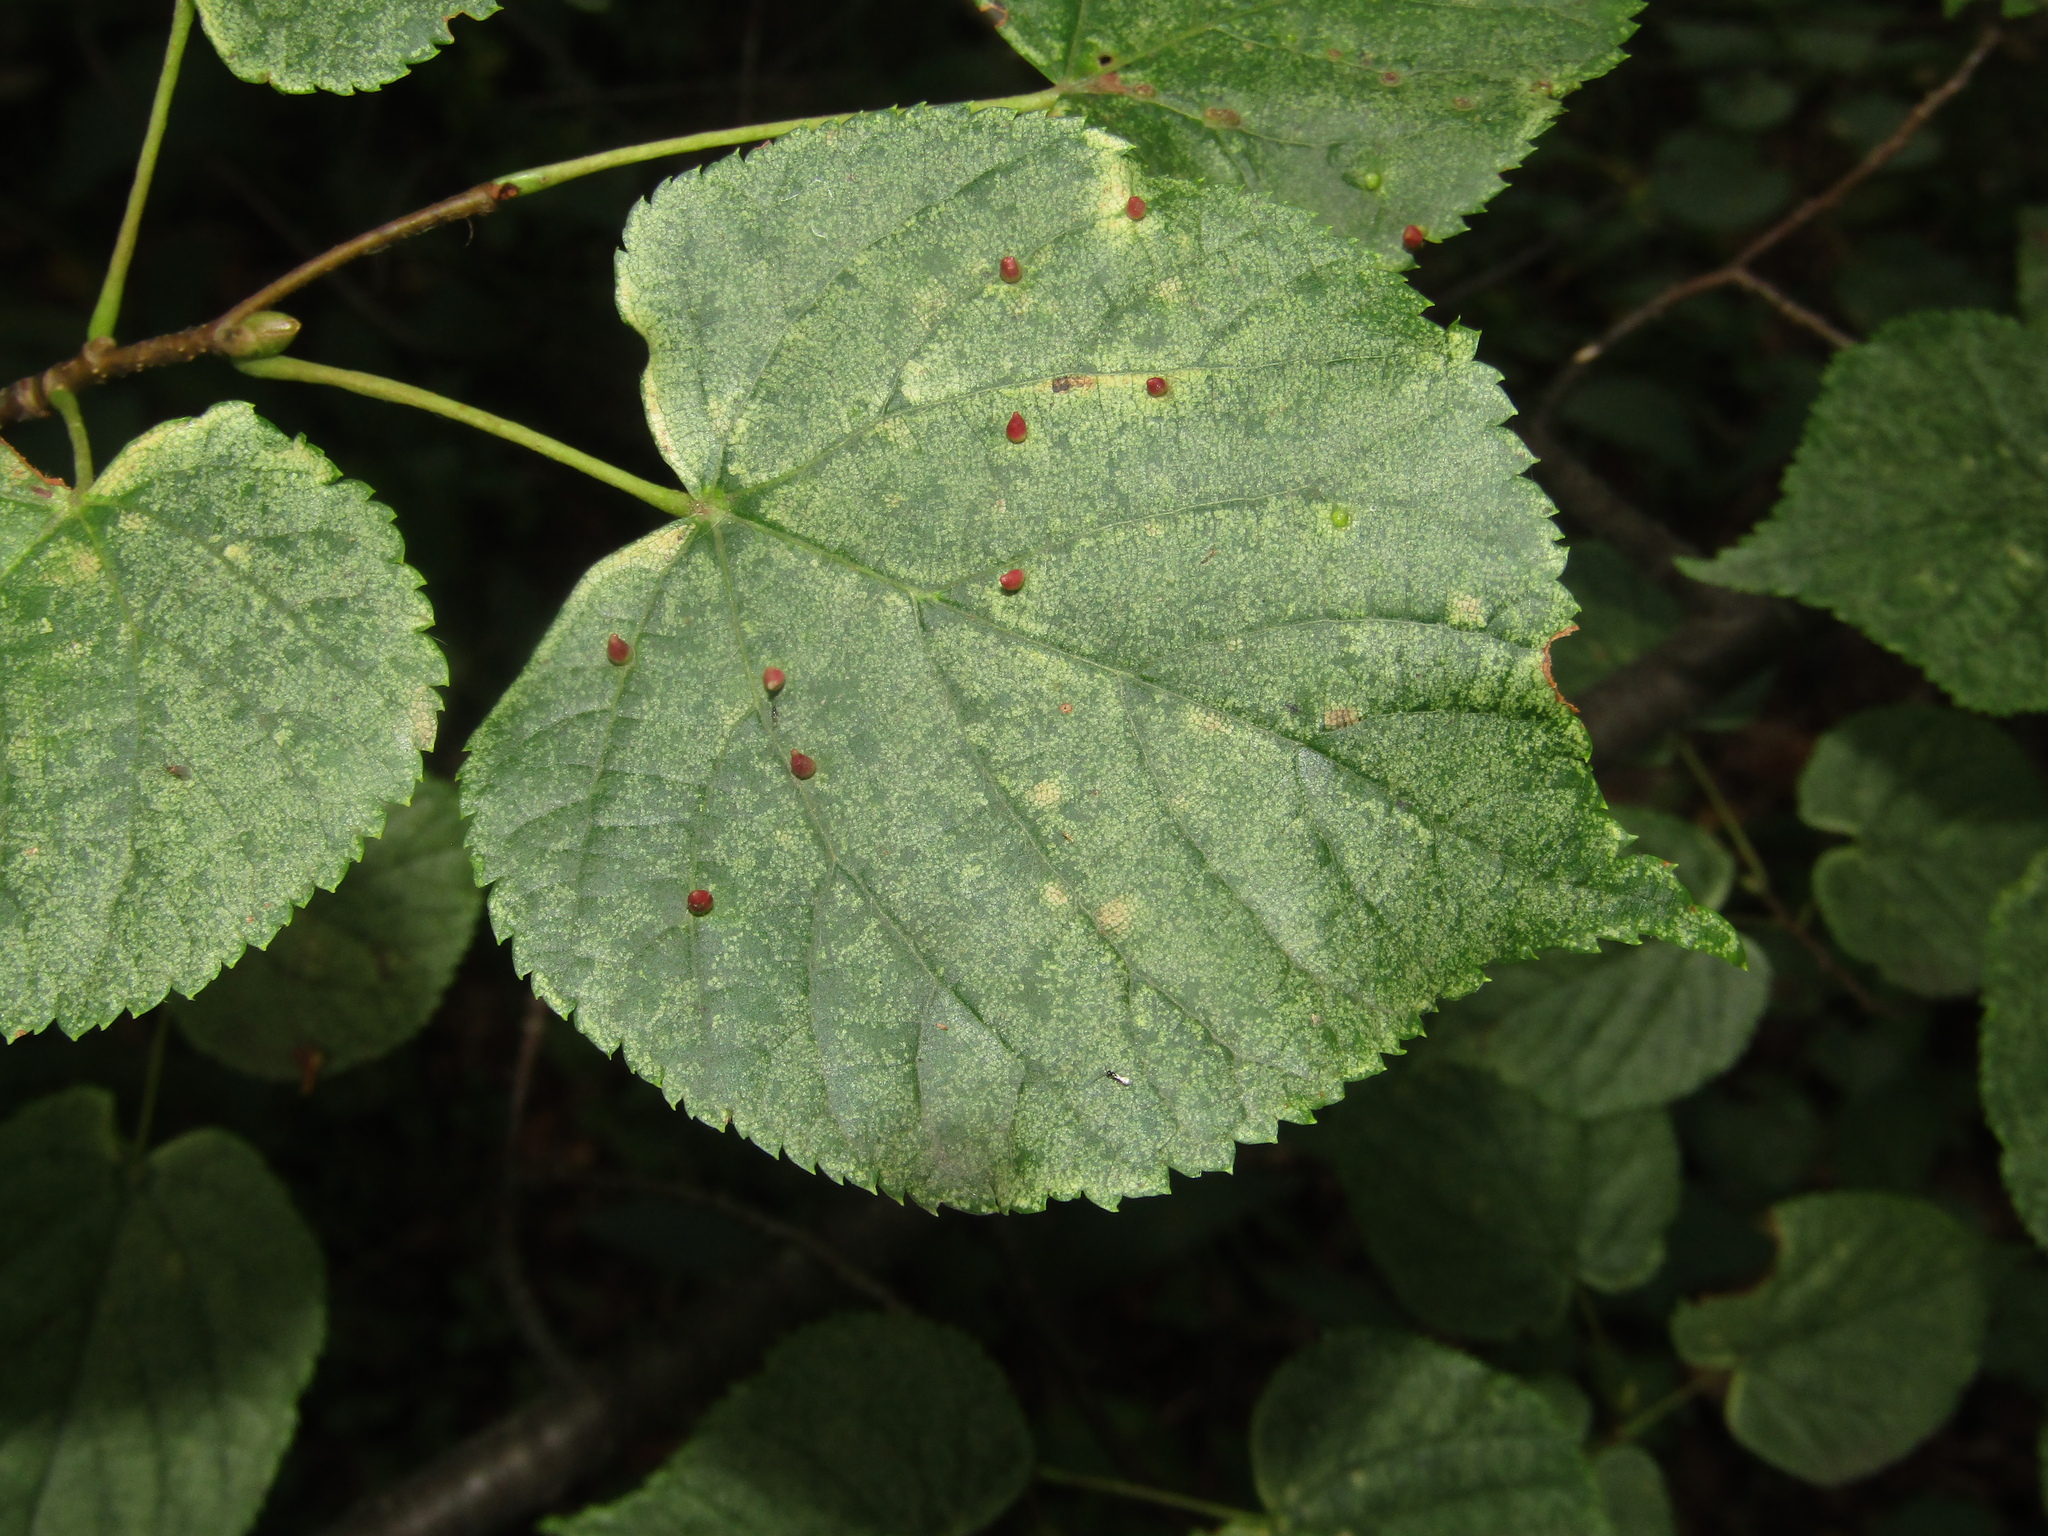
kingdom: Animalia
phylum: Arthropoda
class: Arachnida
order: Trombidiformes
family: Eriophyidae
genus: Eriophyes
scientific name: Eriophyes tiliae
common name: Red nail gall mite
